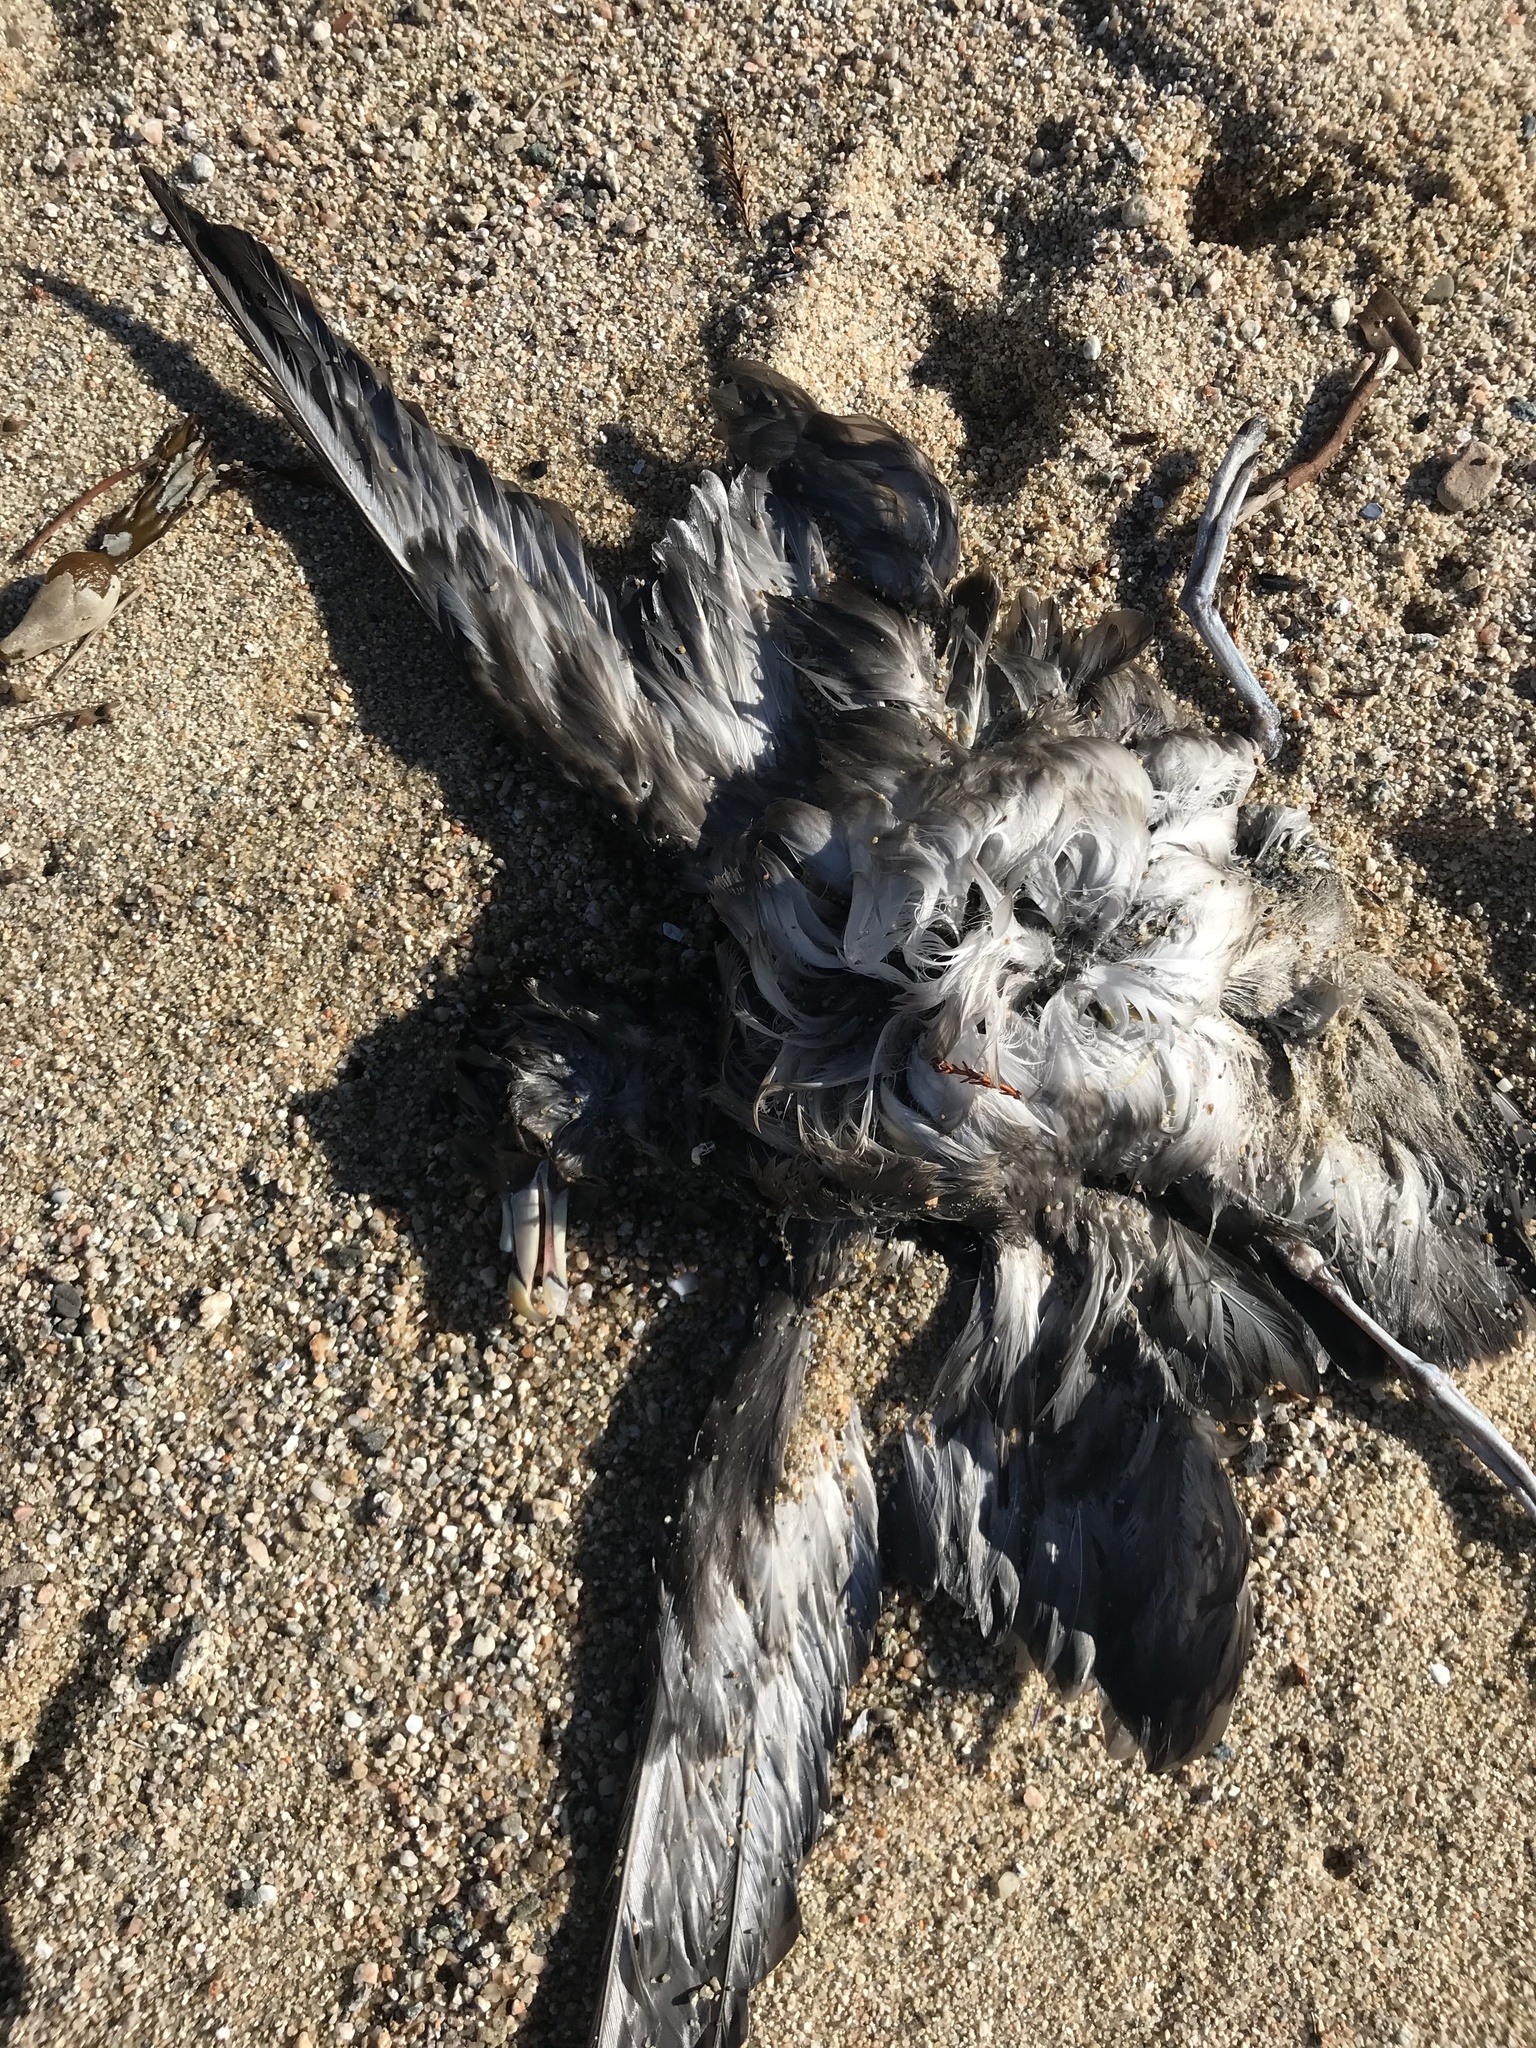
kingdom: Animalia
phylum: Chordata
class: Aves
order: Procellariiformes
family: Procellariidae
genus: Fulmarus
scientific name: Fulmarus glacialis
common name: Northern fulmar
